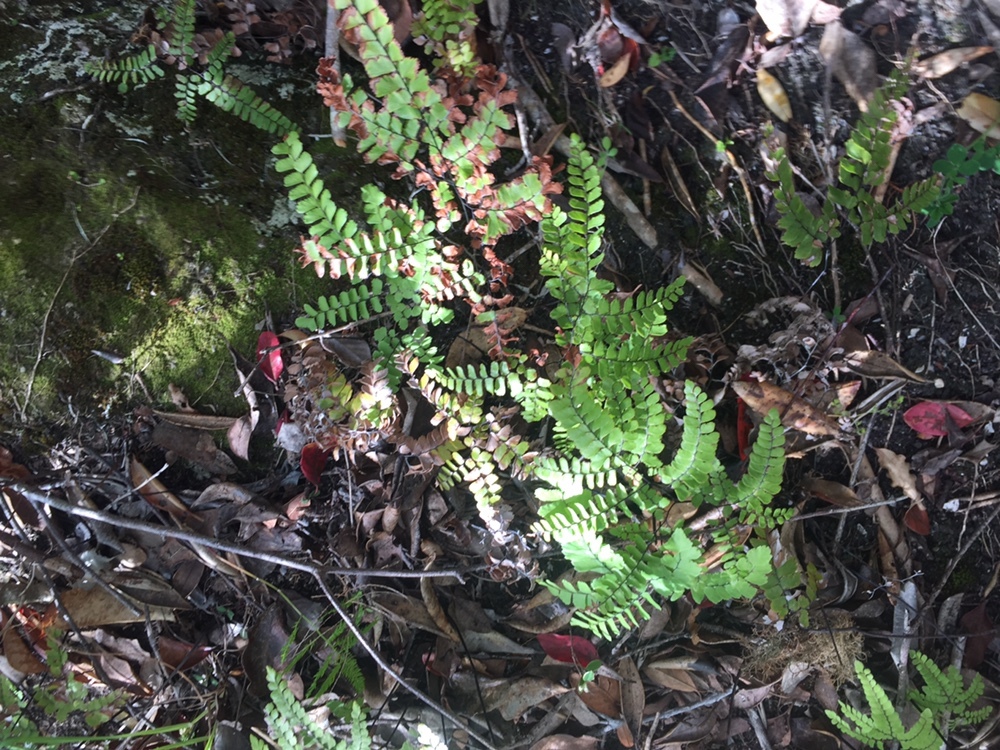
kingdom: Plantae
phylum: Tracheophyta
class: Polypodiopsida
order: Polypodiales
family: Pteridaceae
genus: Adiantum
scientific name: Adiantum cunninghamii
